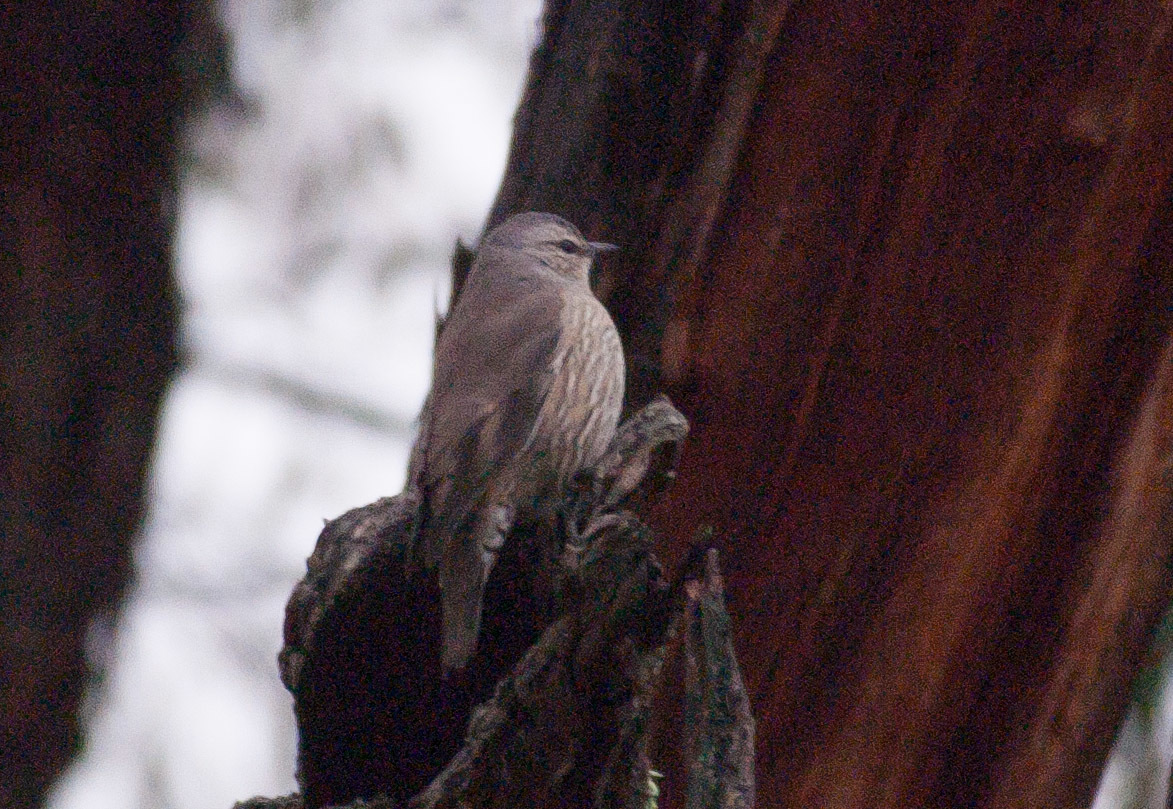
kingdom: Animalia
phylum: Chordata
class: Aves
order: Passeriformes
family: Climacteridae
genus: Climacteris
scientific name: Climacteris picumnus
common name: Brown treecreeper
